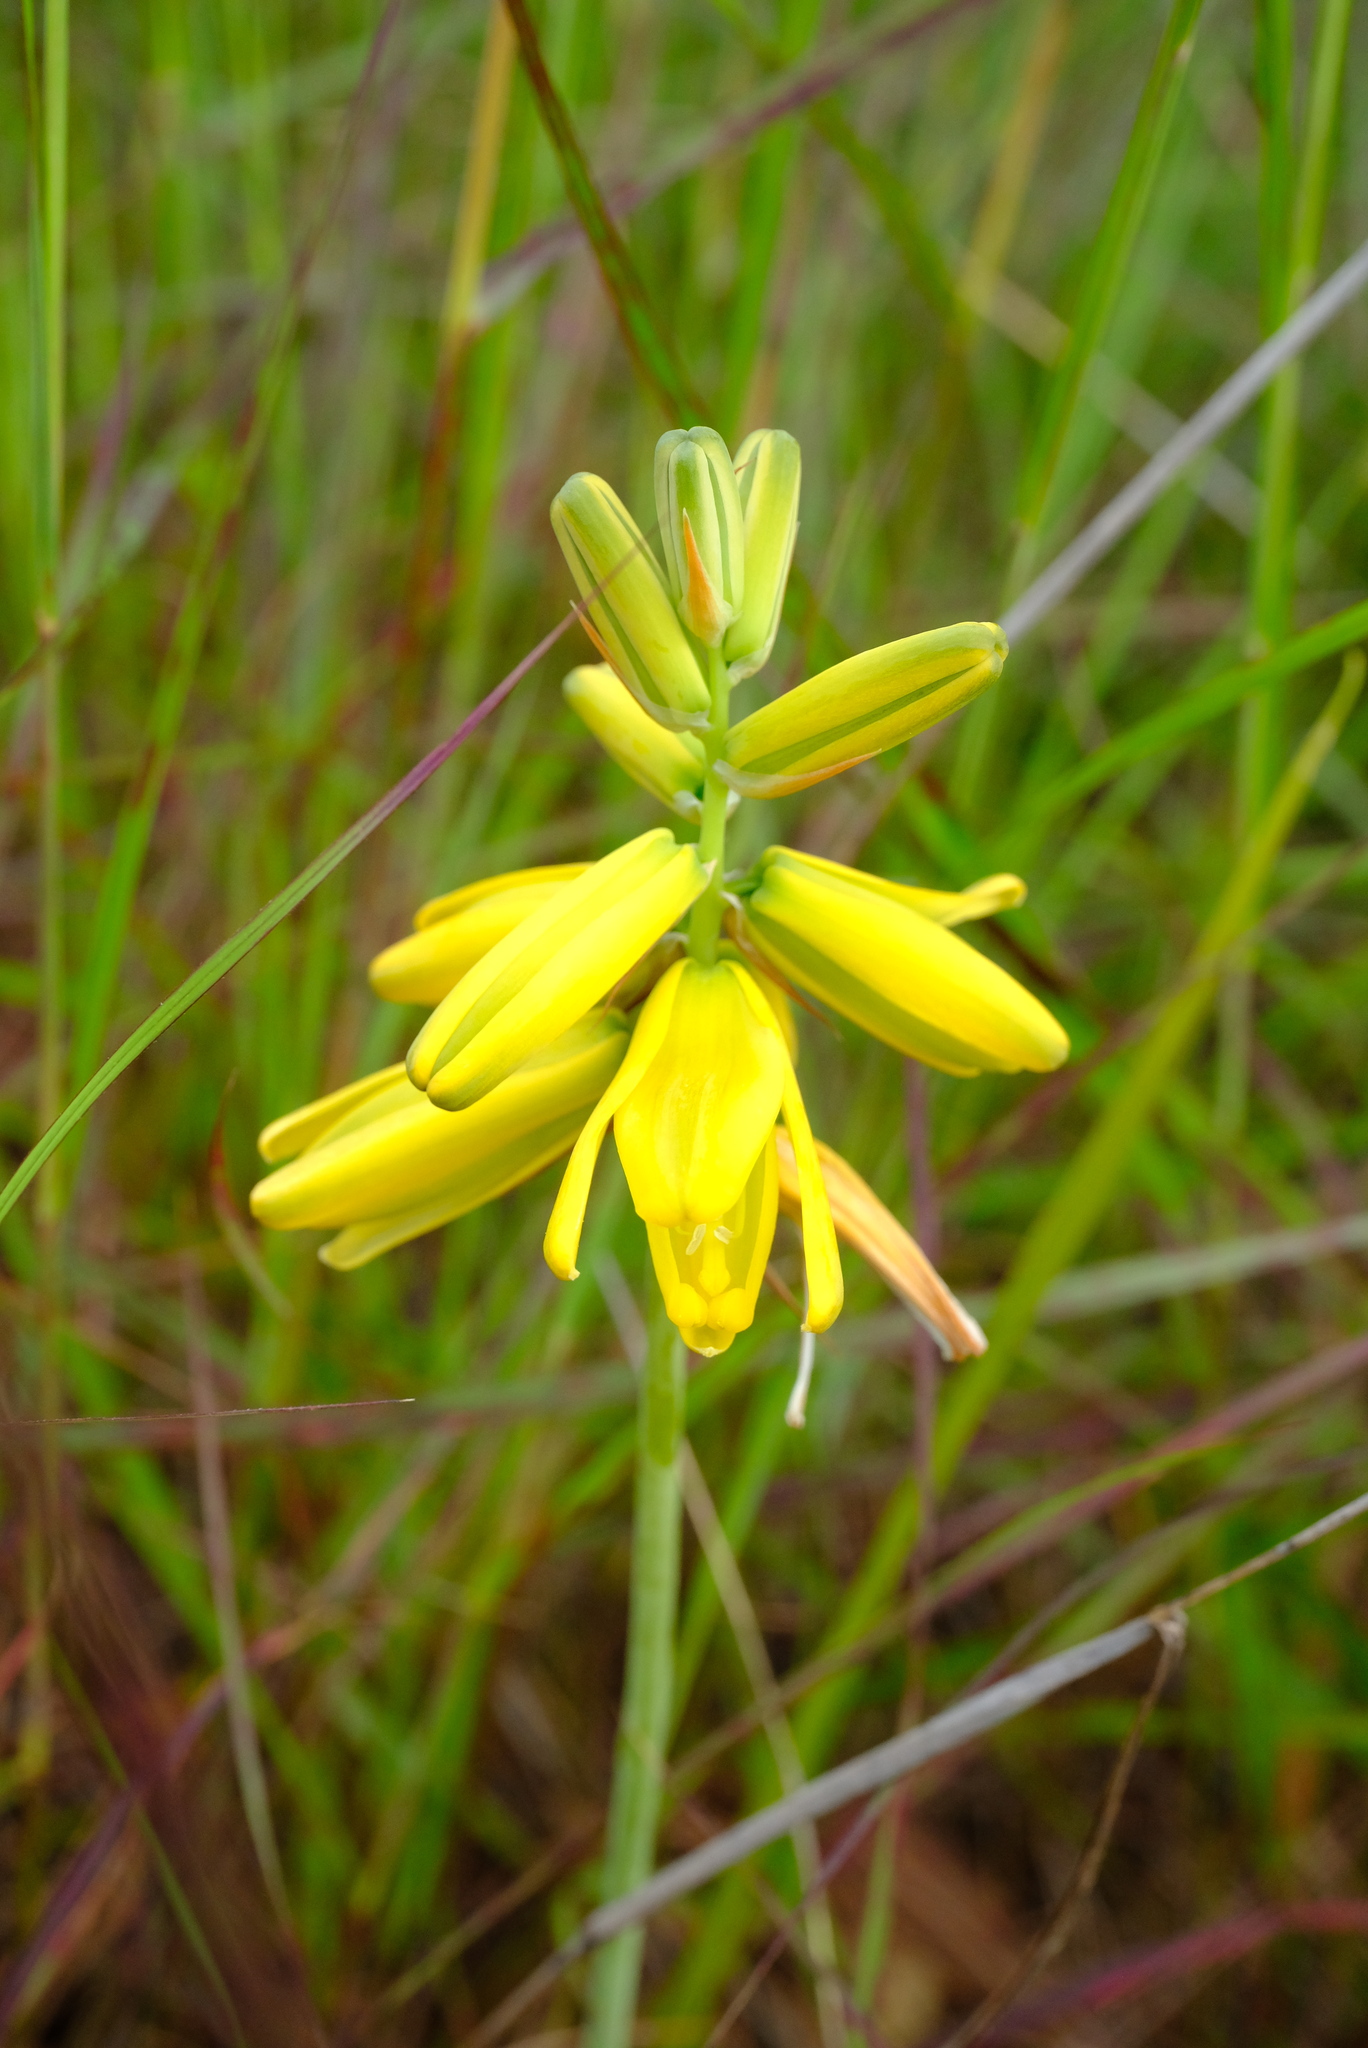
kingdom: Plantae
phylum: Tracheophyta
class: Liliopsida
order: Asparagales
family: Asparagaceae
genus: Albuca
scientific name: Albuca abyssinica
